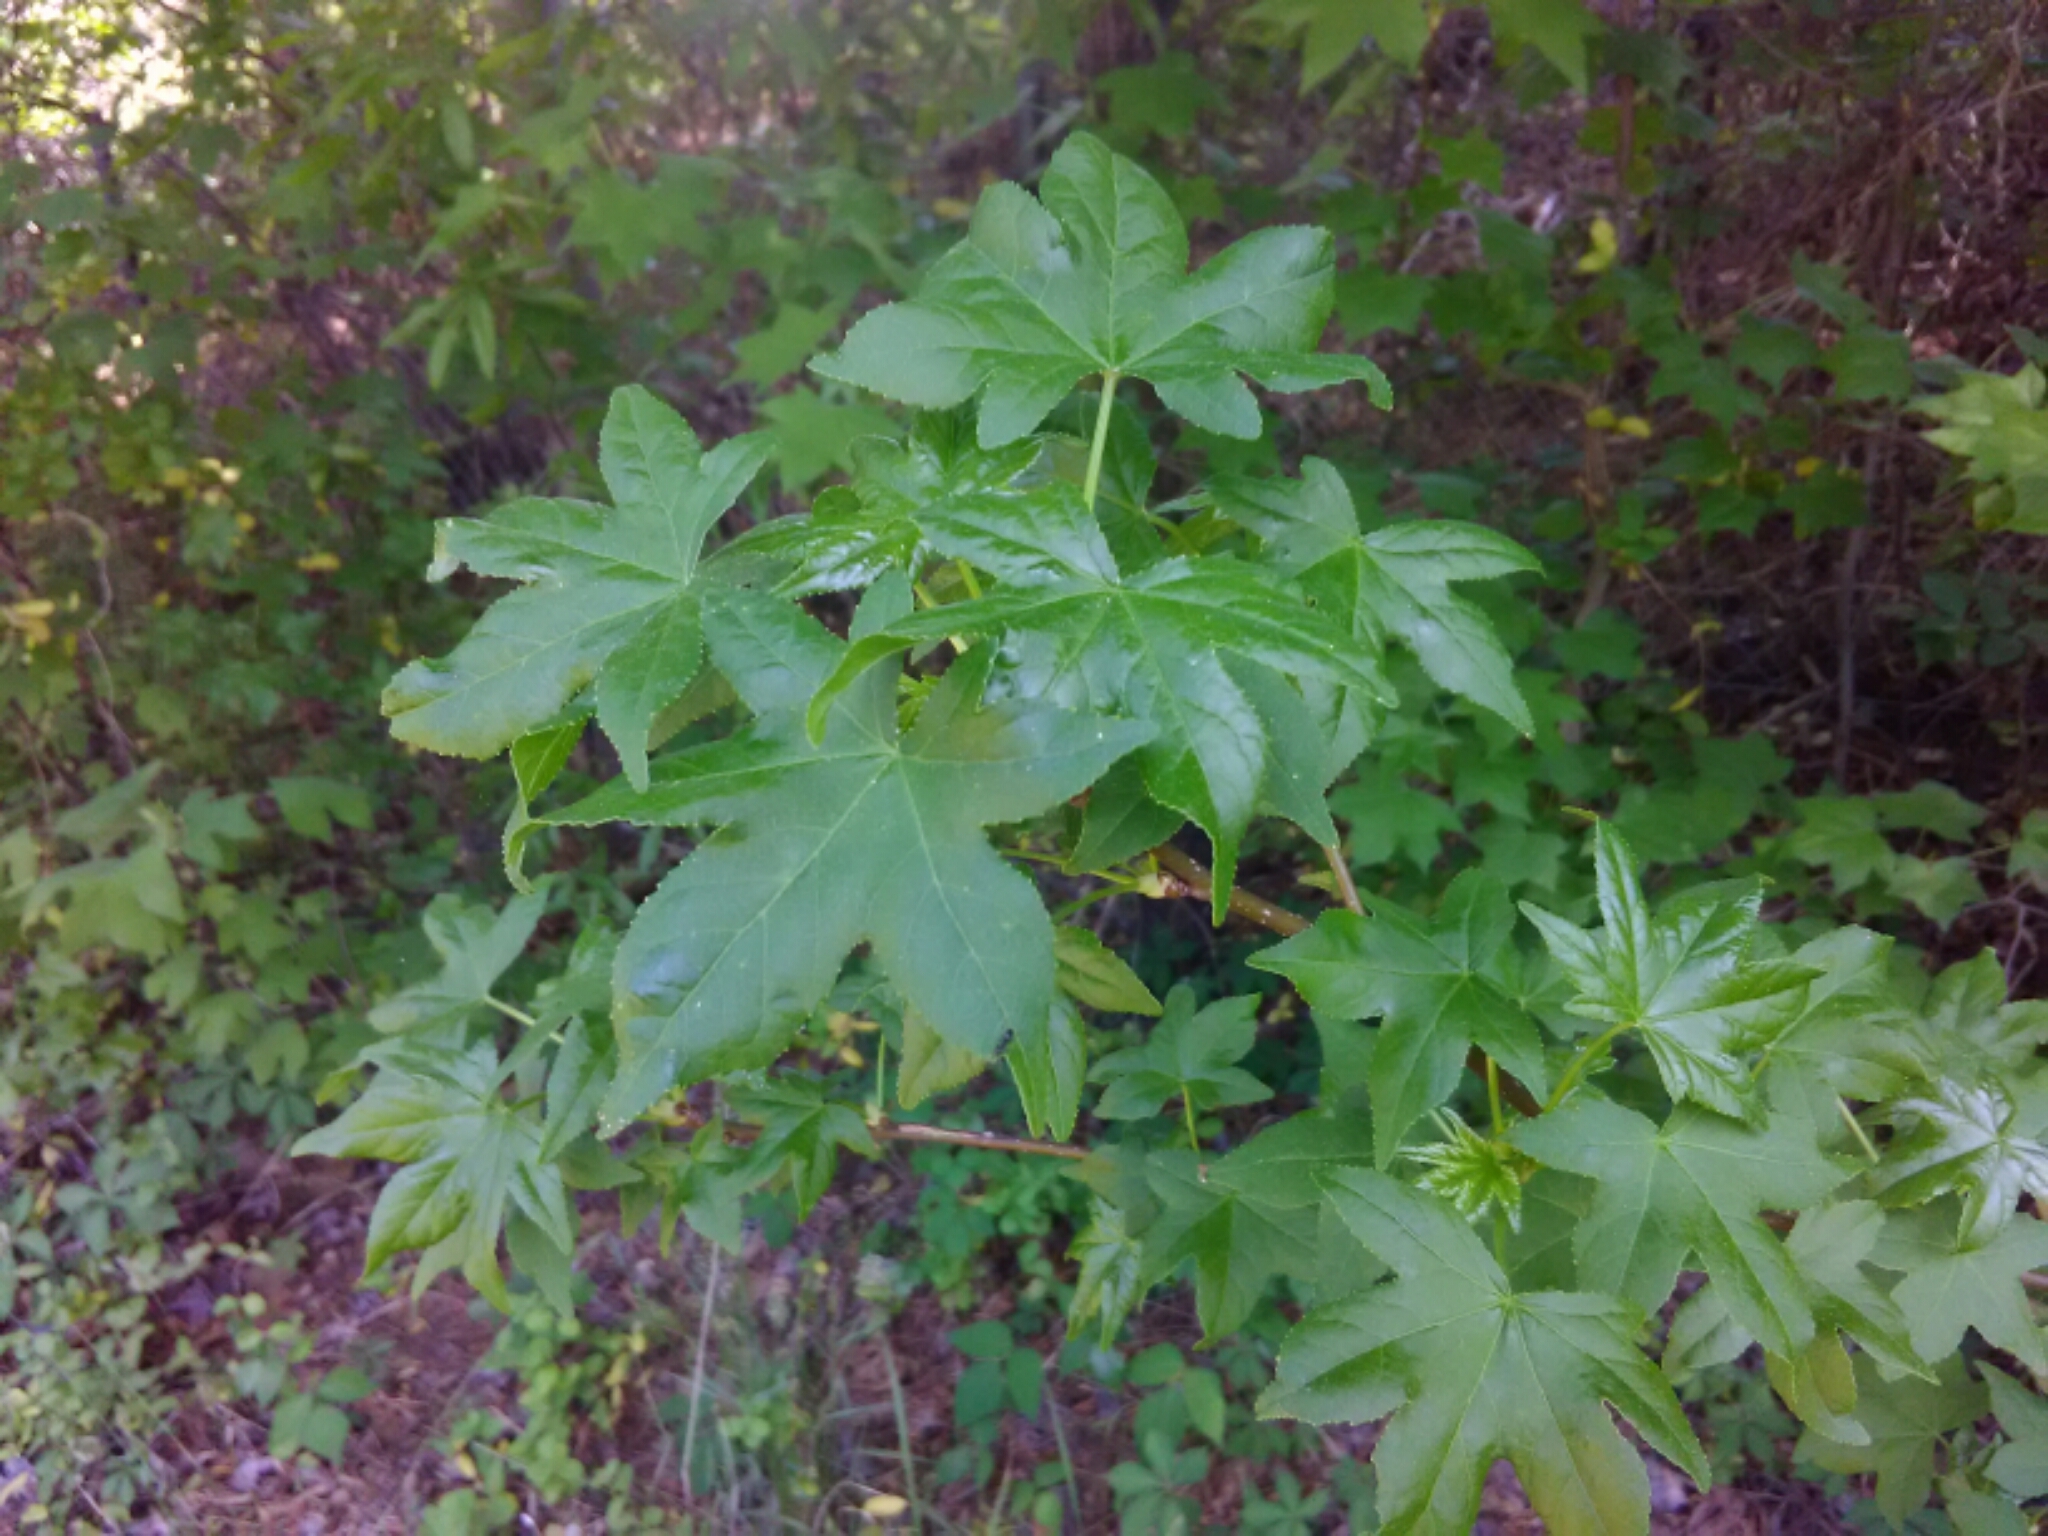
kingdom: Plantae
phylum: Tracheophyta
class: Magnoliopsida
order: Saxifragales
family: Altingiaceae
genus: Liquidambar
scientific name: Liquidambar styraciflua
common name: Sweet gum
